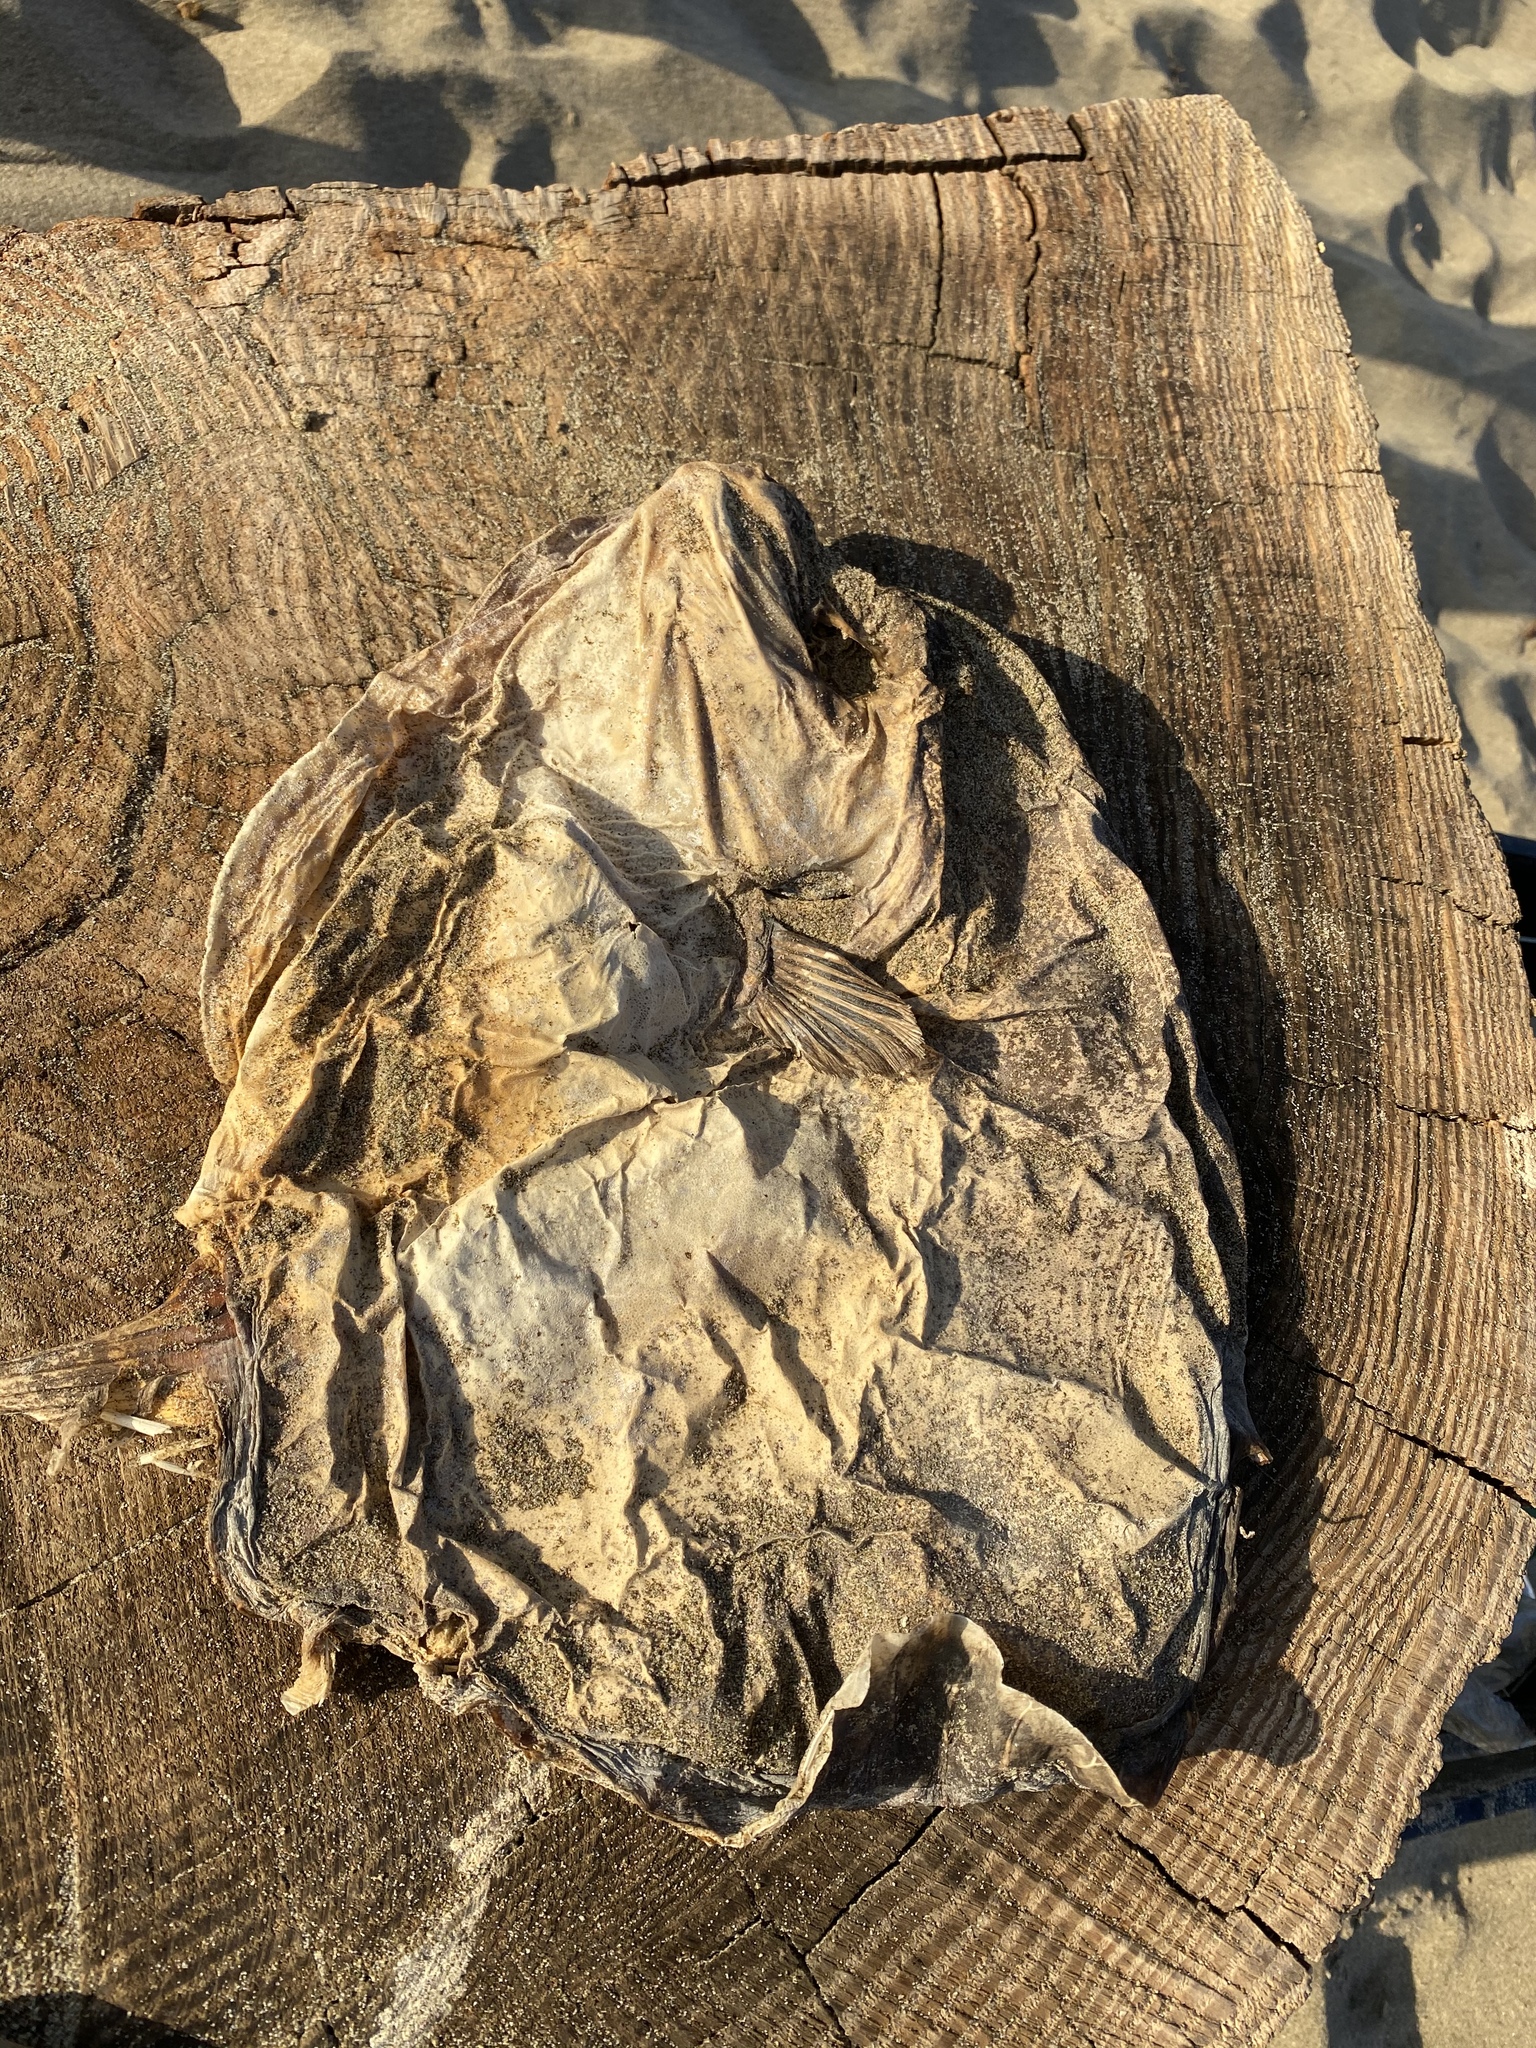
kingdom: Animalia
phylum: Chordata
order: Tetraodontiformes
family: Molidae
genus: Mola
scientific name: Mola mola
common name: Ocean sunfish
